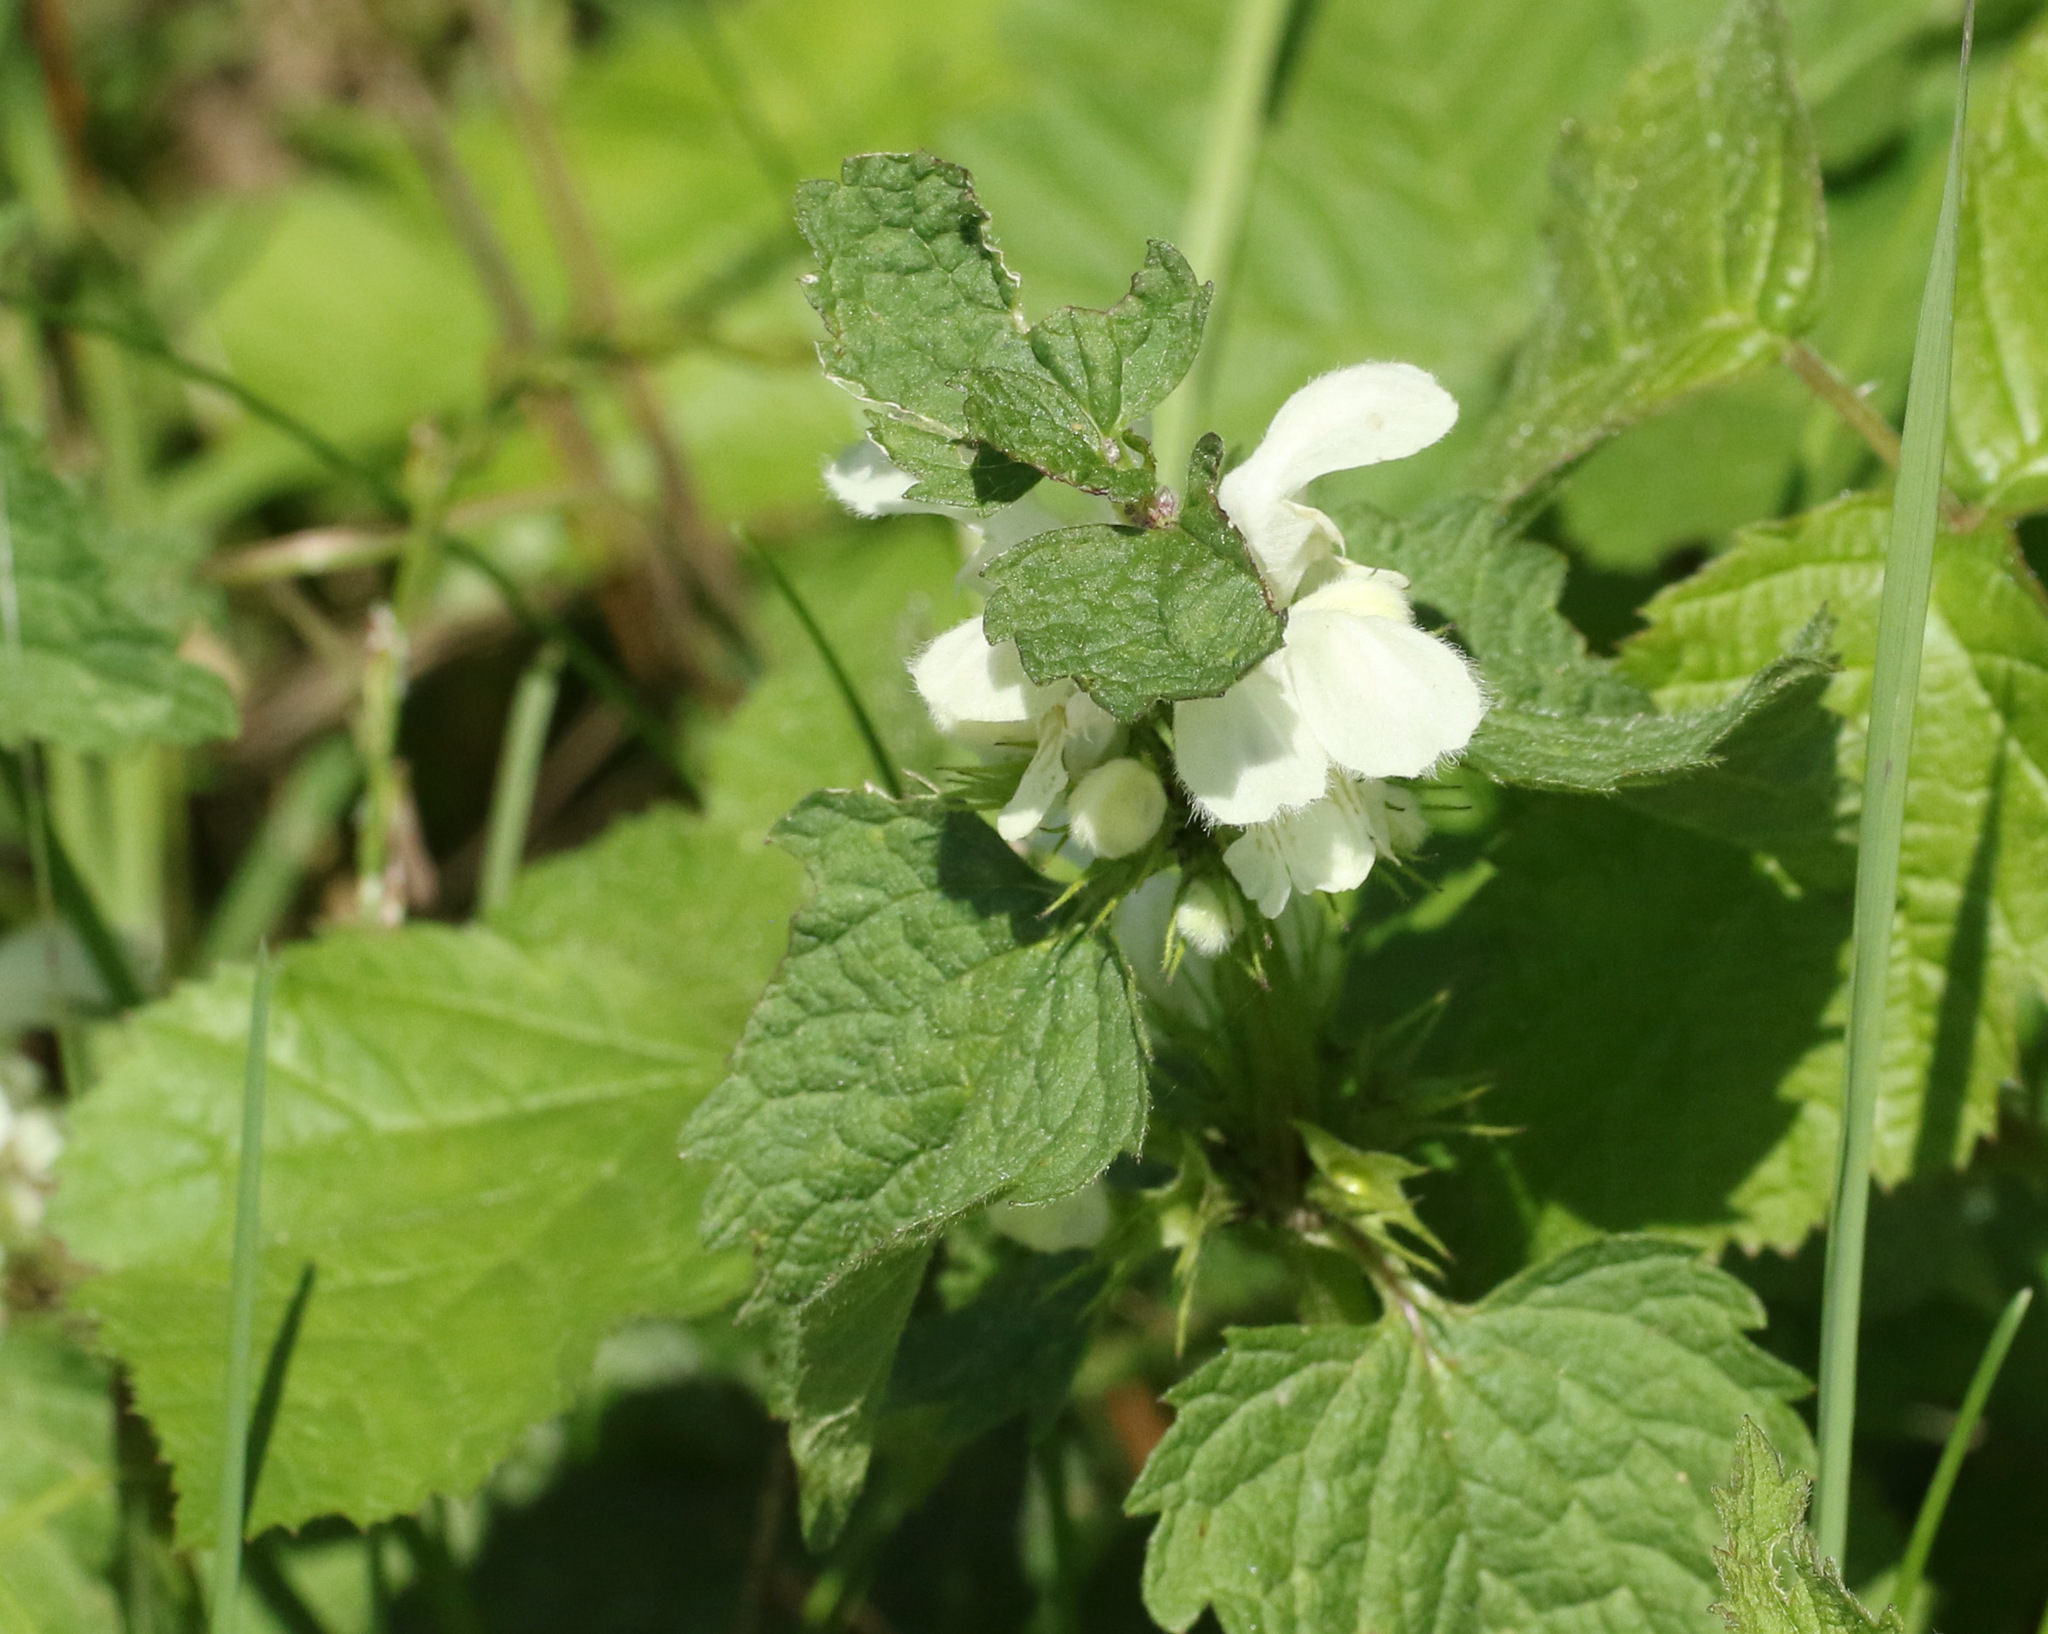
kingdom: Plantae
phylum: Tracheophyta
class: Magnoliopsida
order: Lamiales
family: Lamiaceae
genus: Lamium
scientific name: Lamium album
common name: White dead-nettle
